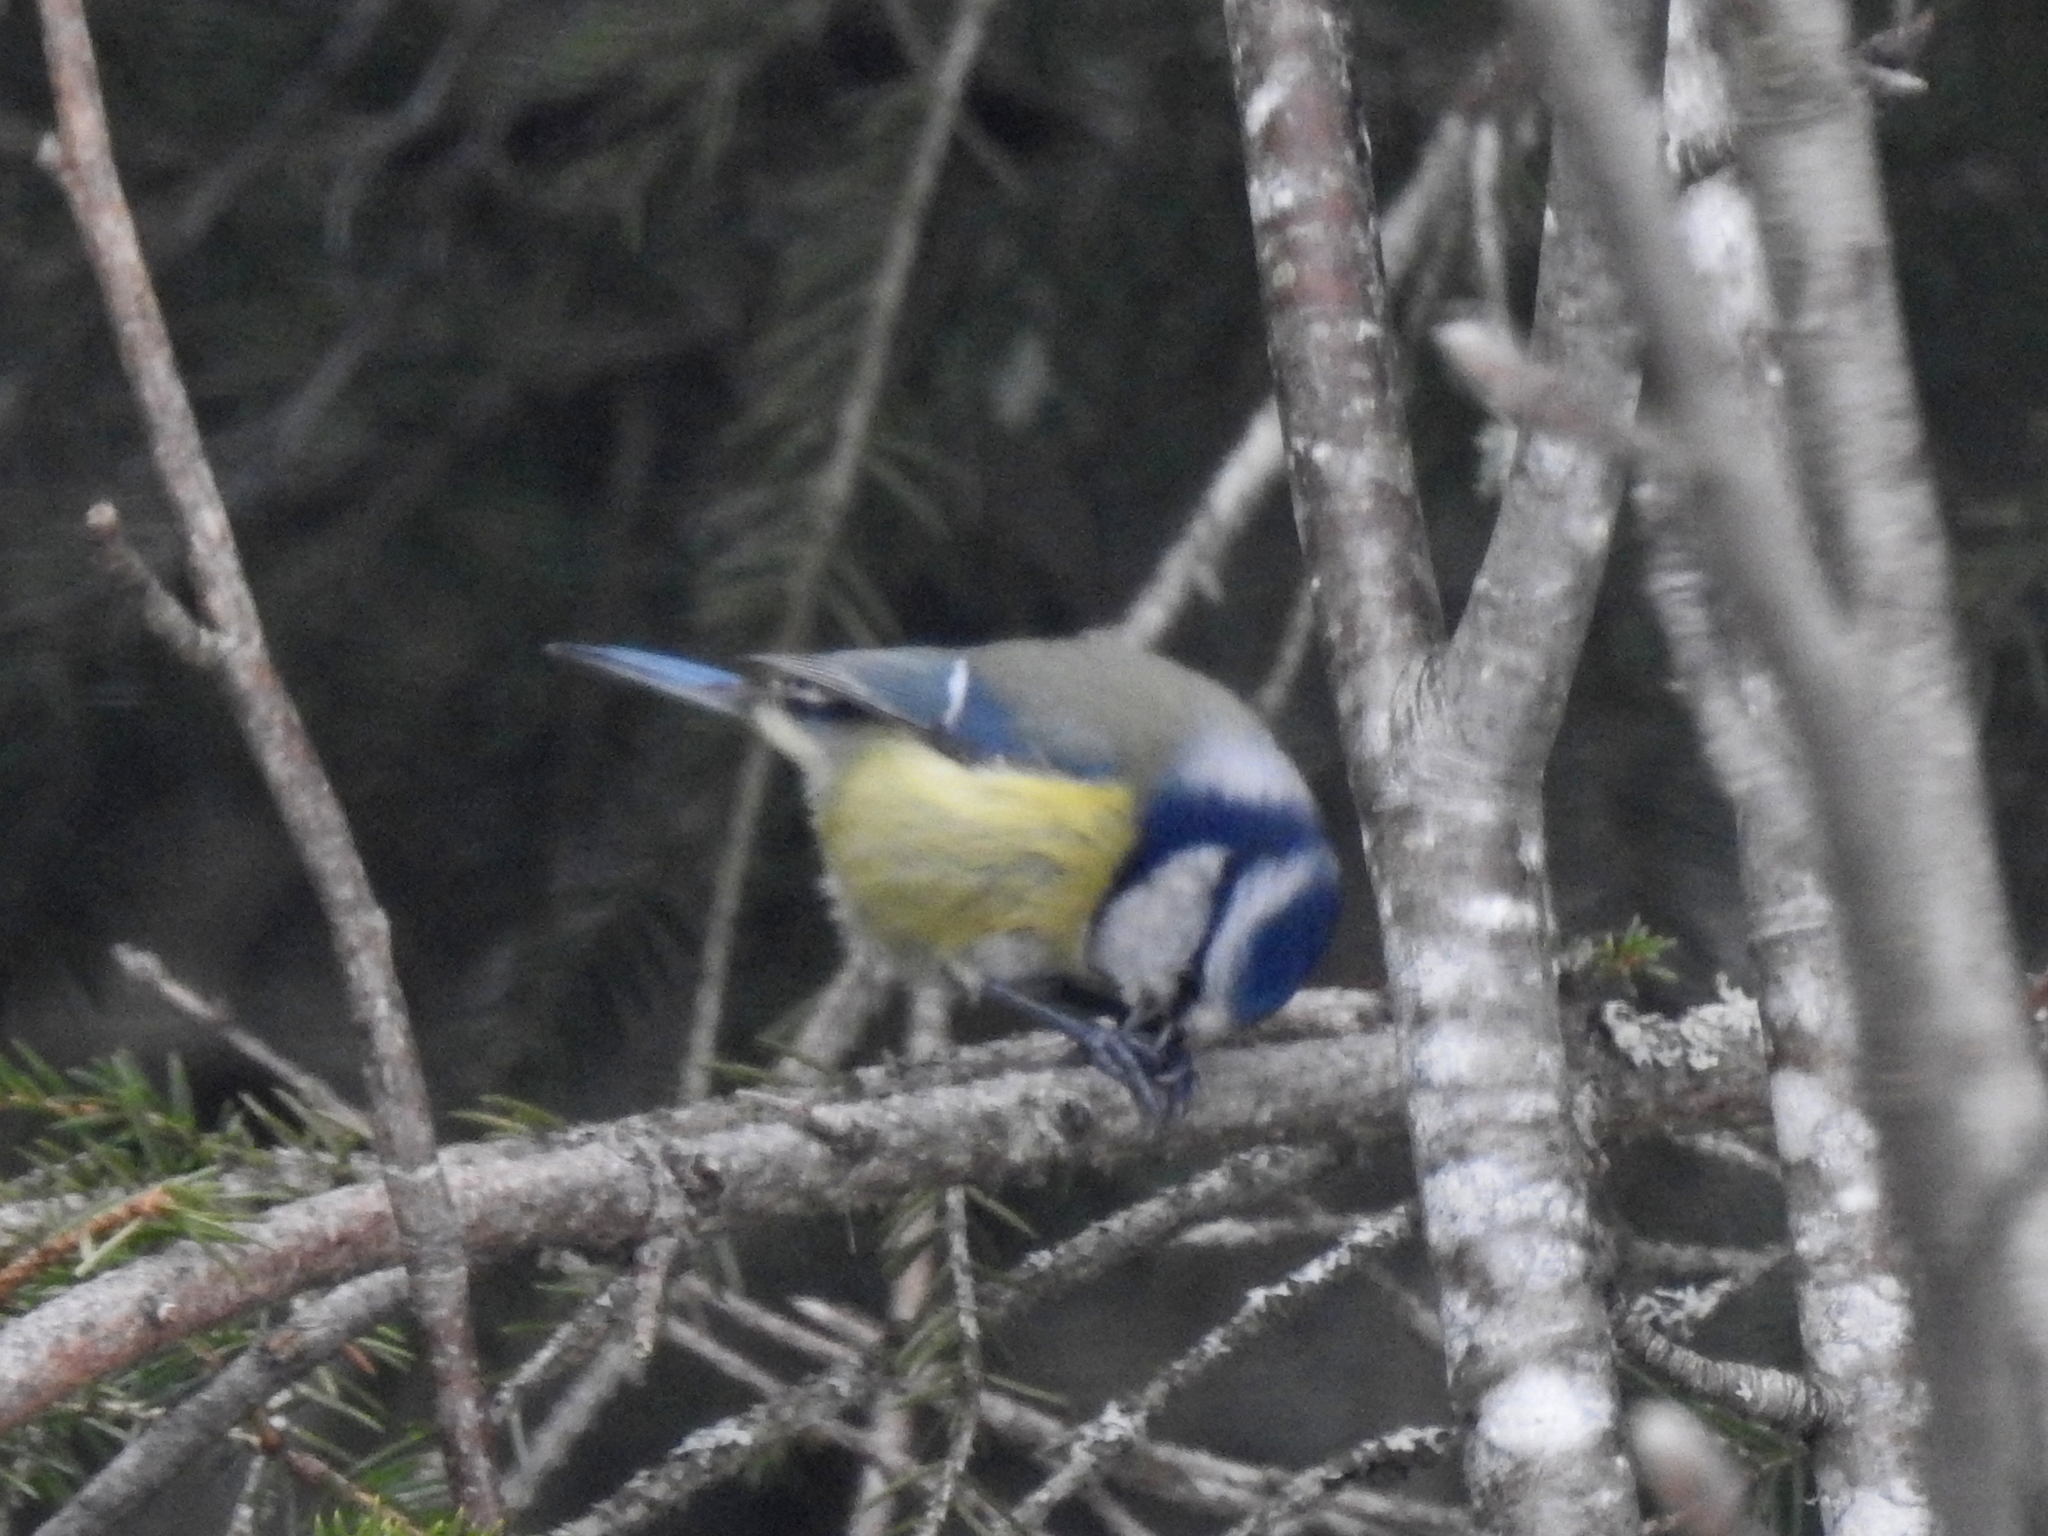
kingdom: Animalia
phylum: Chordata
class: Aves
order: Passeriformes
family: Paridae
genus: Cyanistes
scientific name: Cyanistes caeruleus
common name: Eurasian blue tit
